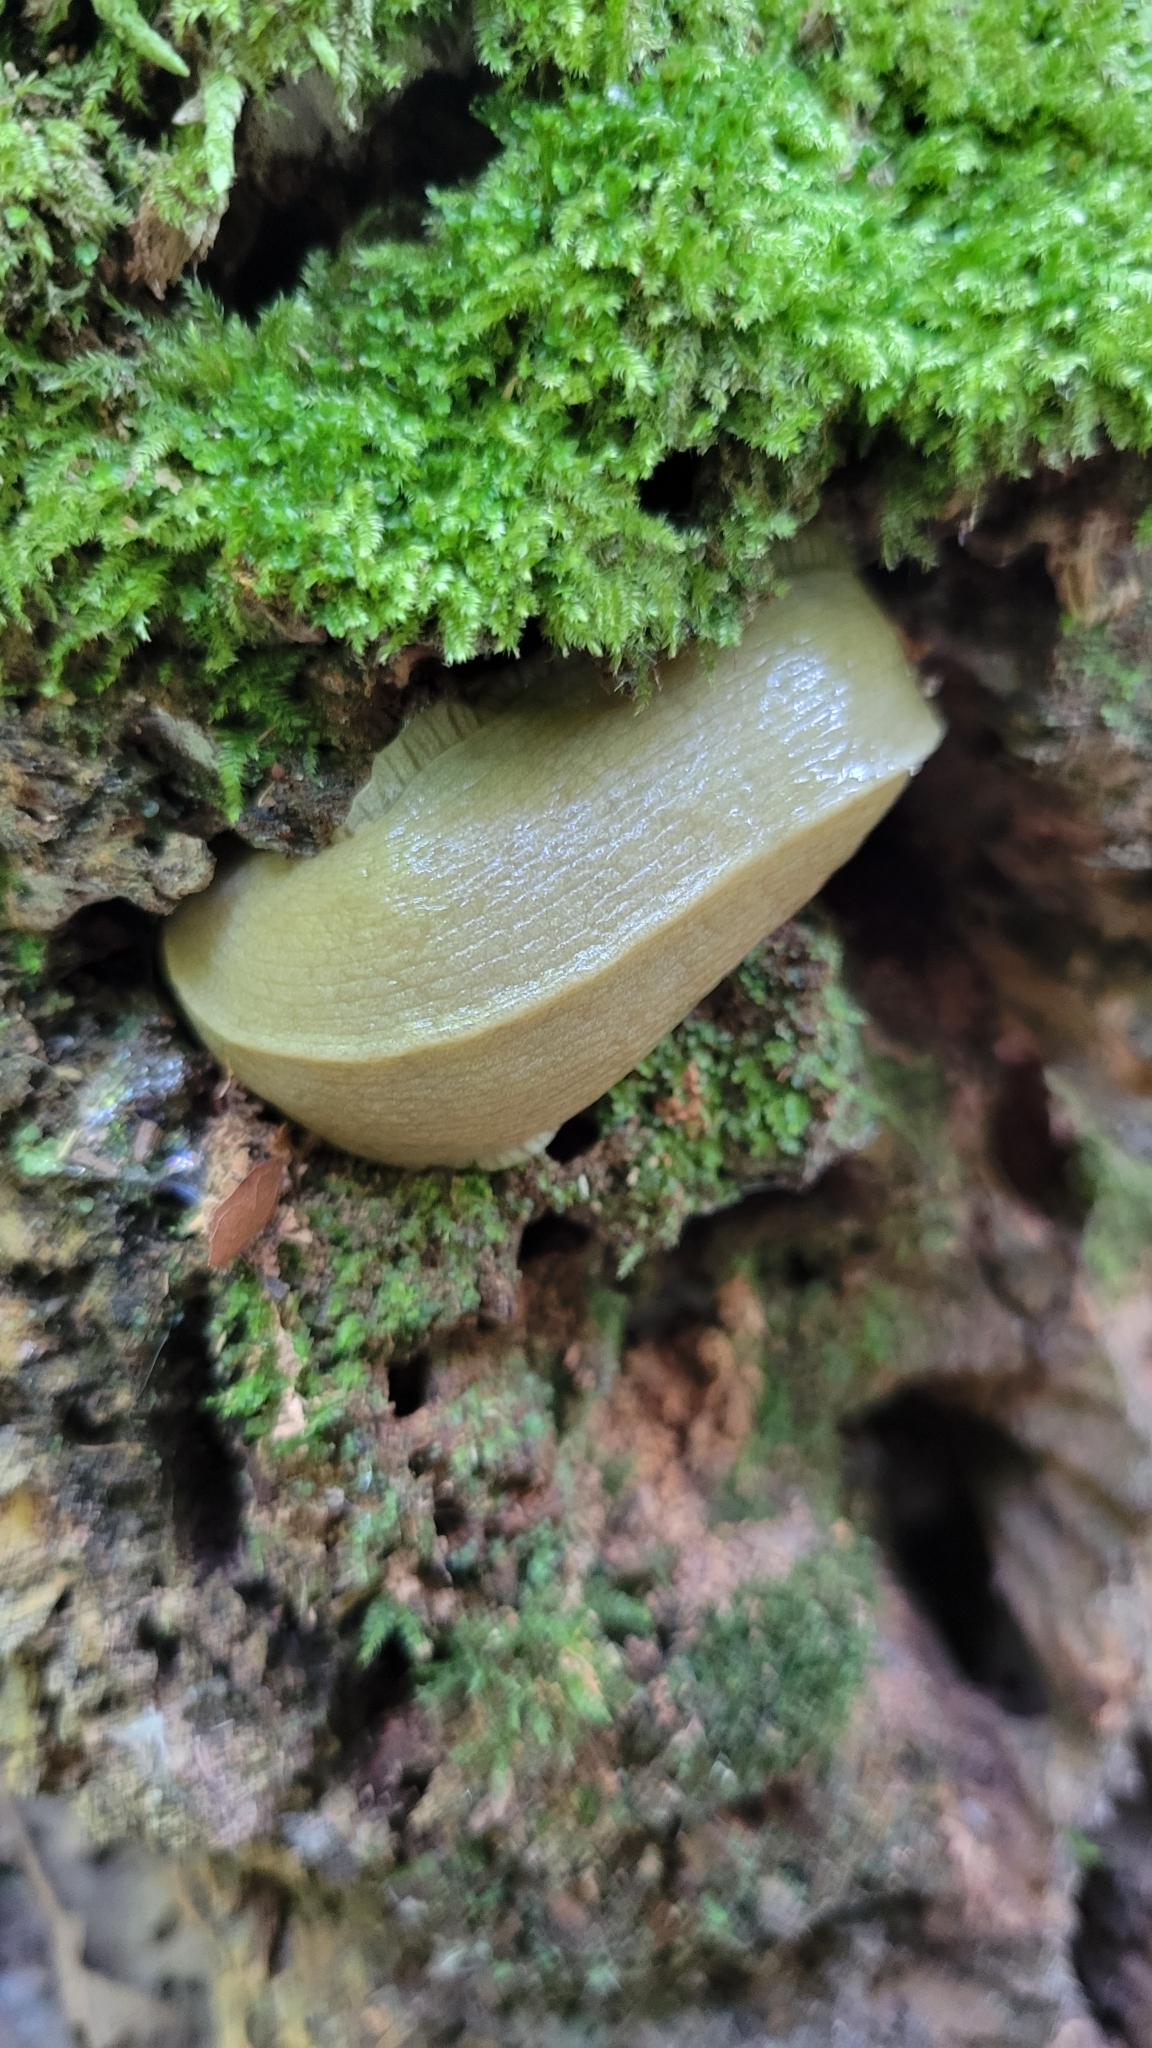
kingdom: Animalia
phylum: Mollusca
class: Gastropoda
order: Stylommatophora
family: Ariolimacidae
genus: Ariolimax
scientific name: Ariolimax columbianus
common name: Pacific banana slug
